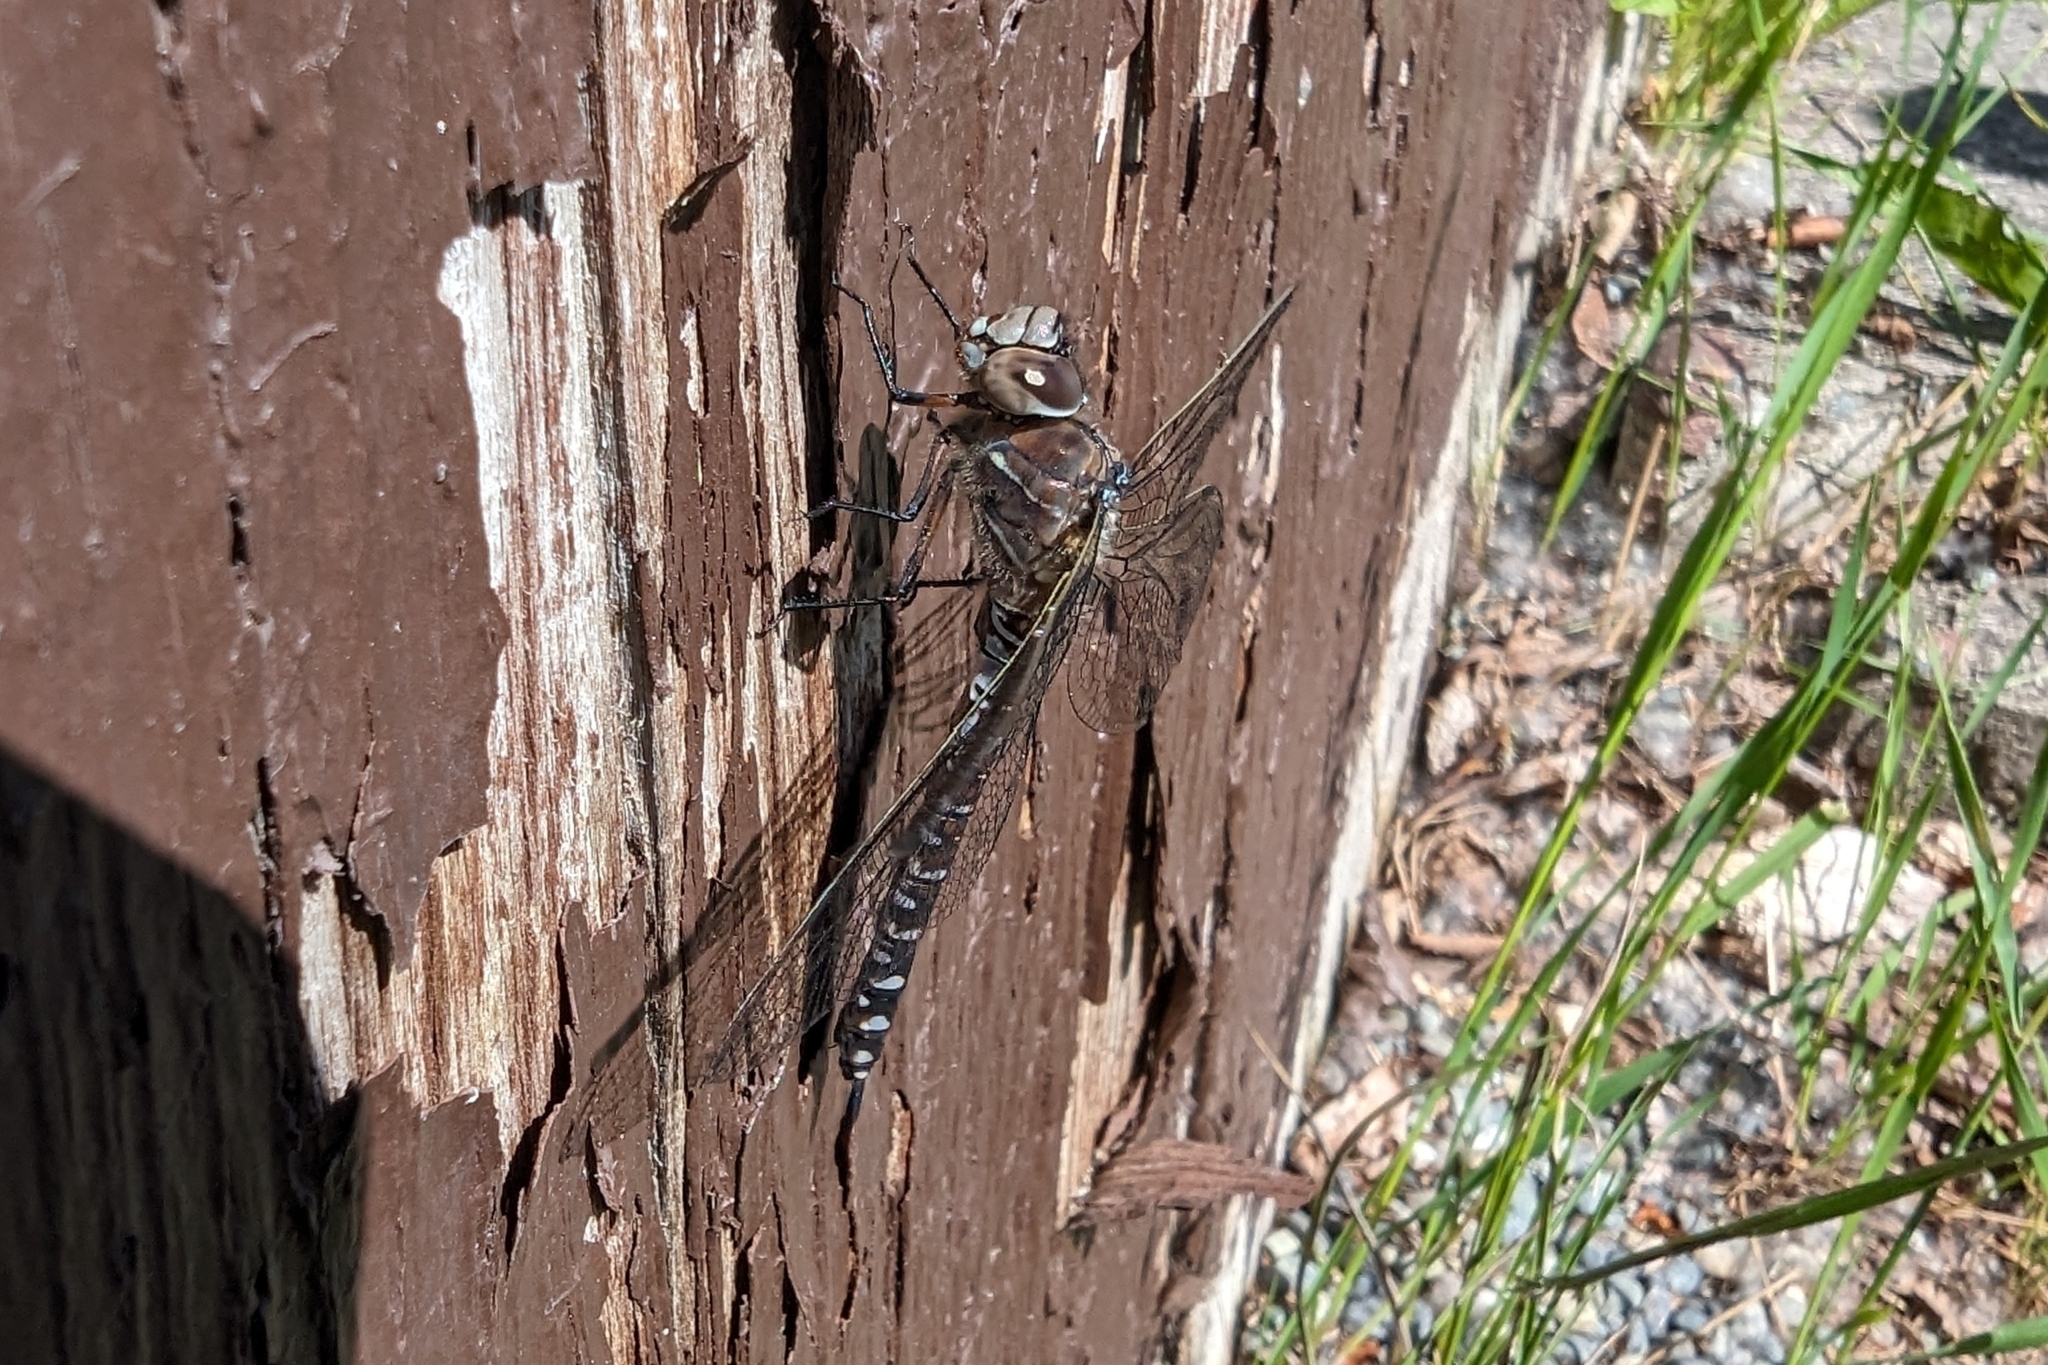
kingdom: Animalia
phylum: Arthropoda
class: Insecta
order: Odonata
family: Aeshnidae
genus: Aeshna
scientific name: Aeshna interrupta
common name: Variable darner
